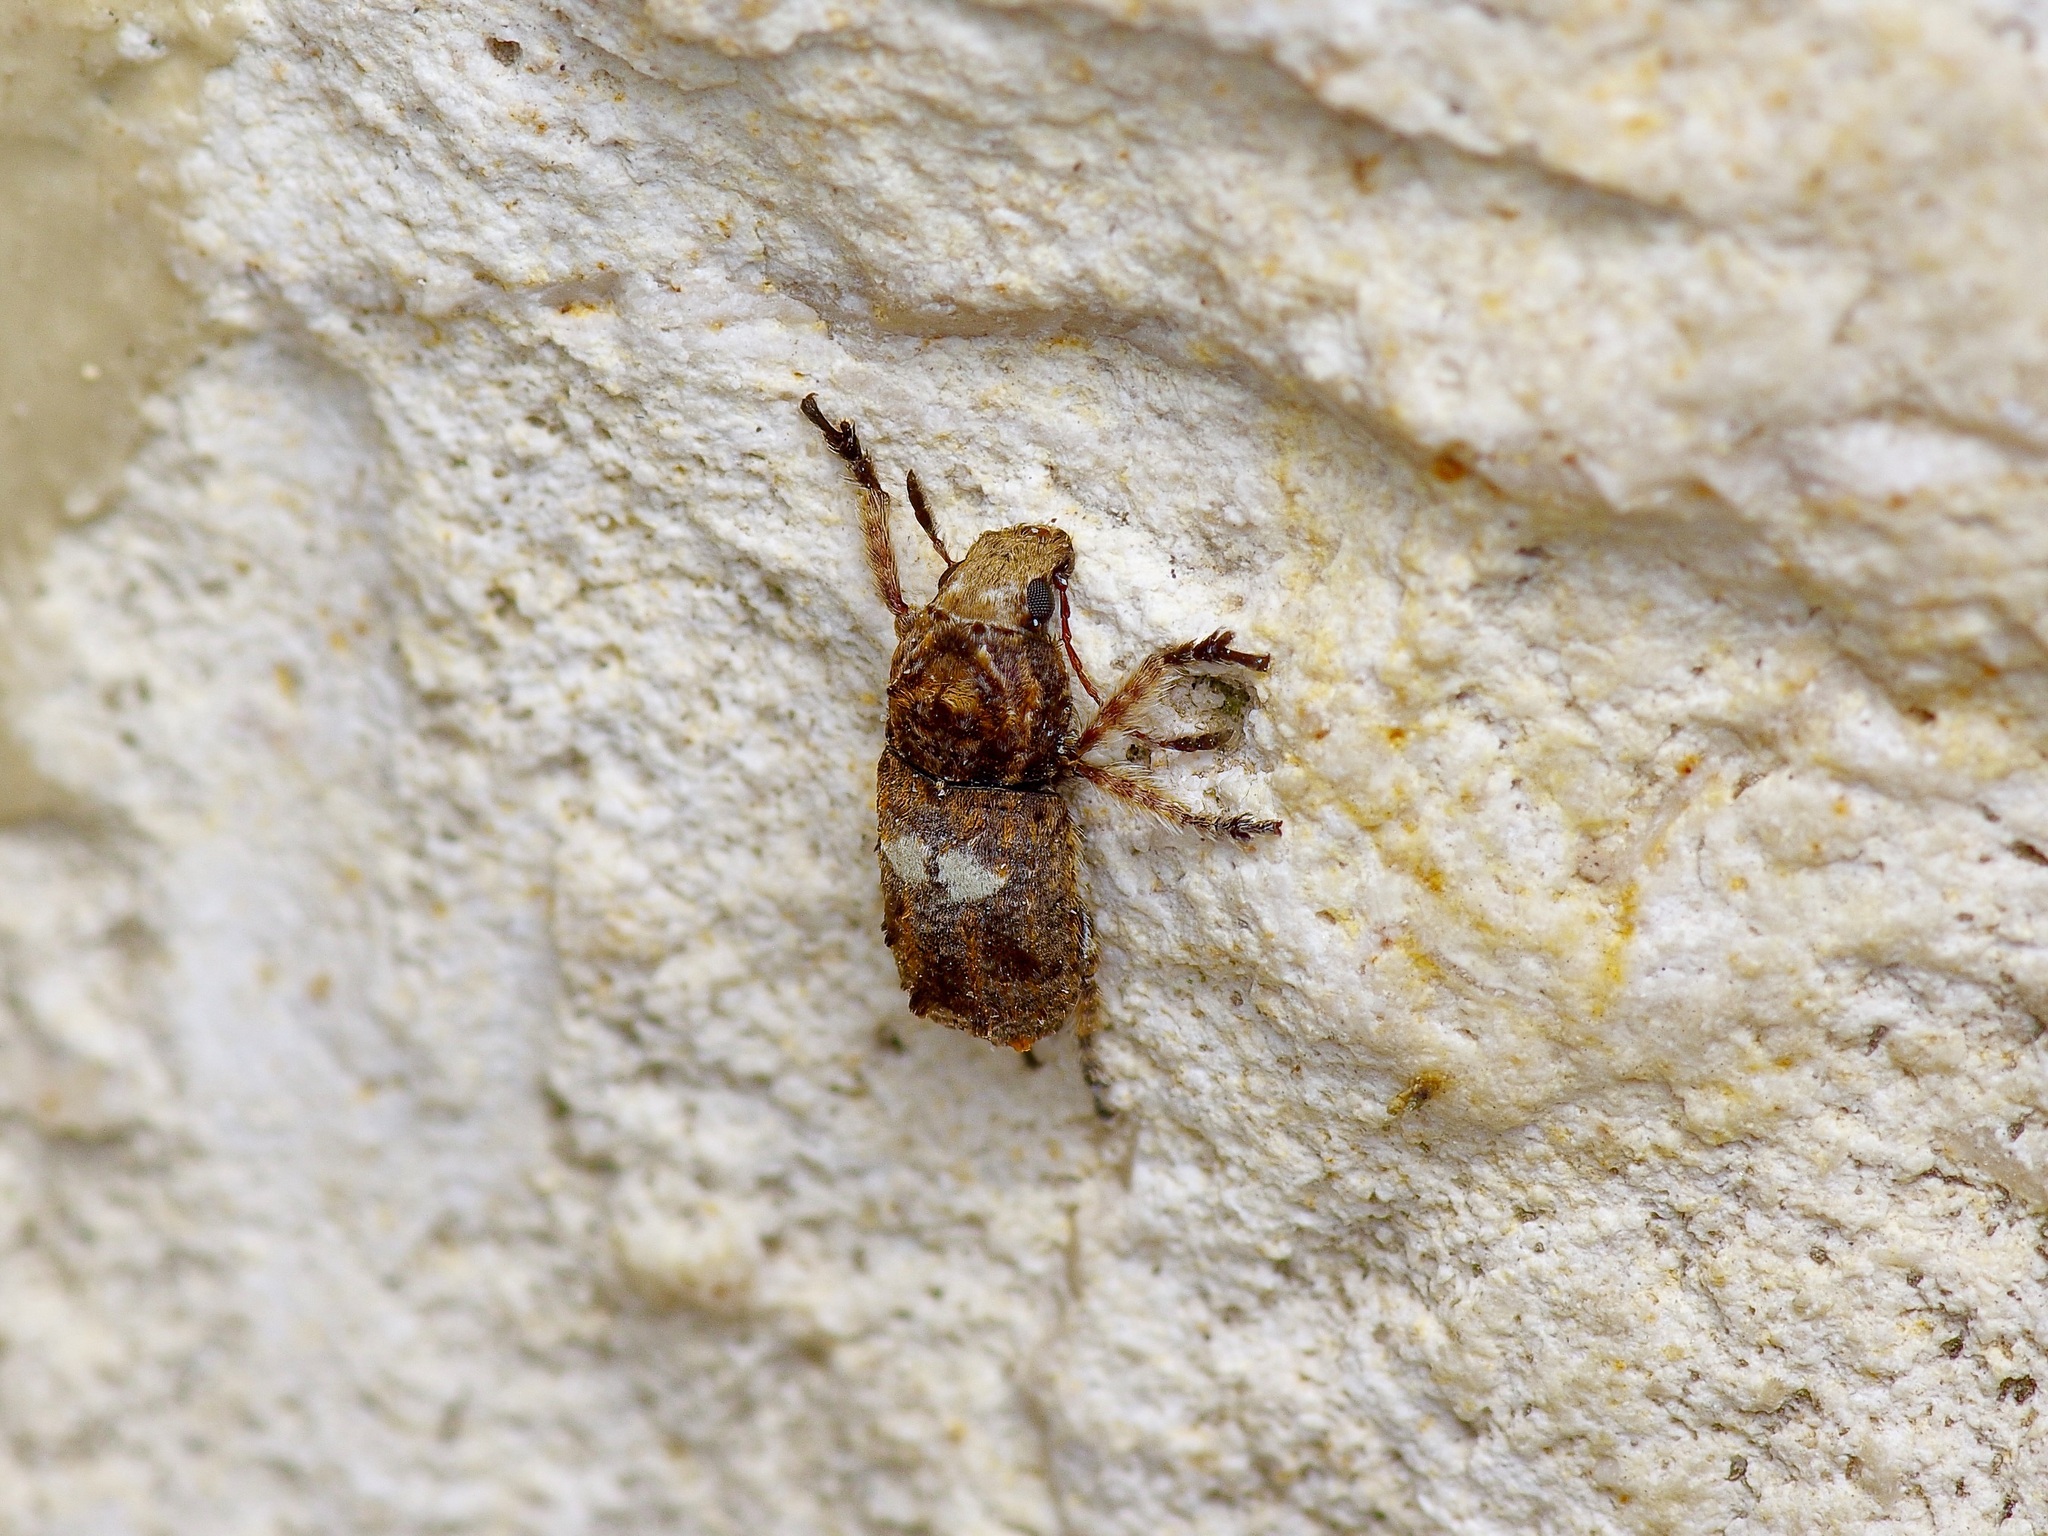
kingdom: Animalia
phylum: Arthropoda
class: Insecta
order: Coleoptera
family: Anthribidae
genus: Toxonotus
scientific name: Toxonotus cornutus
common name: Fungus weevil
